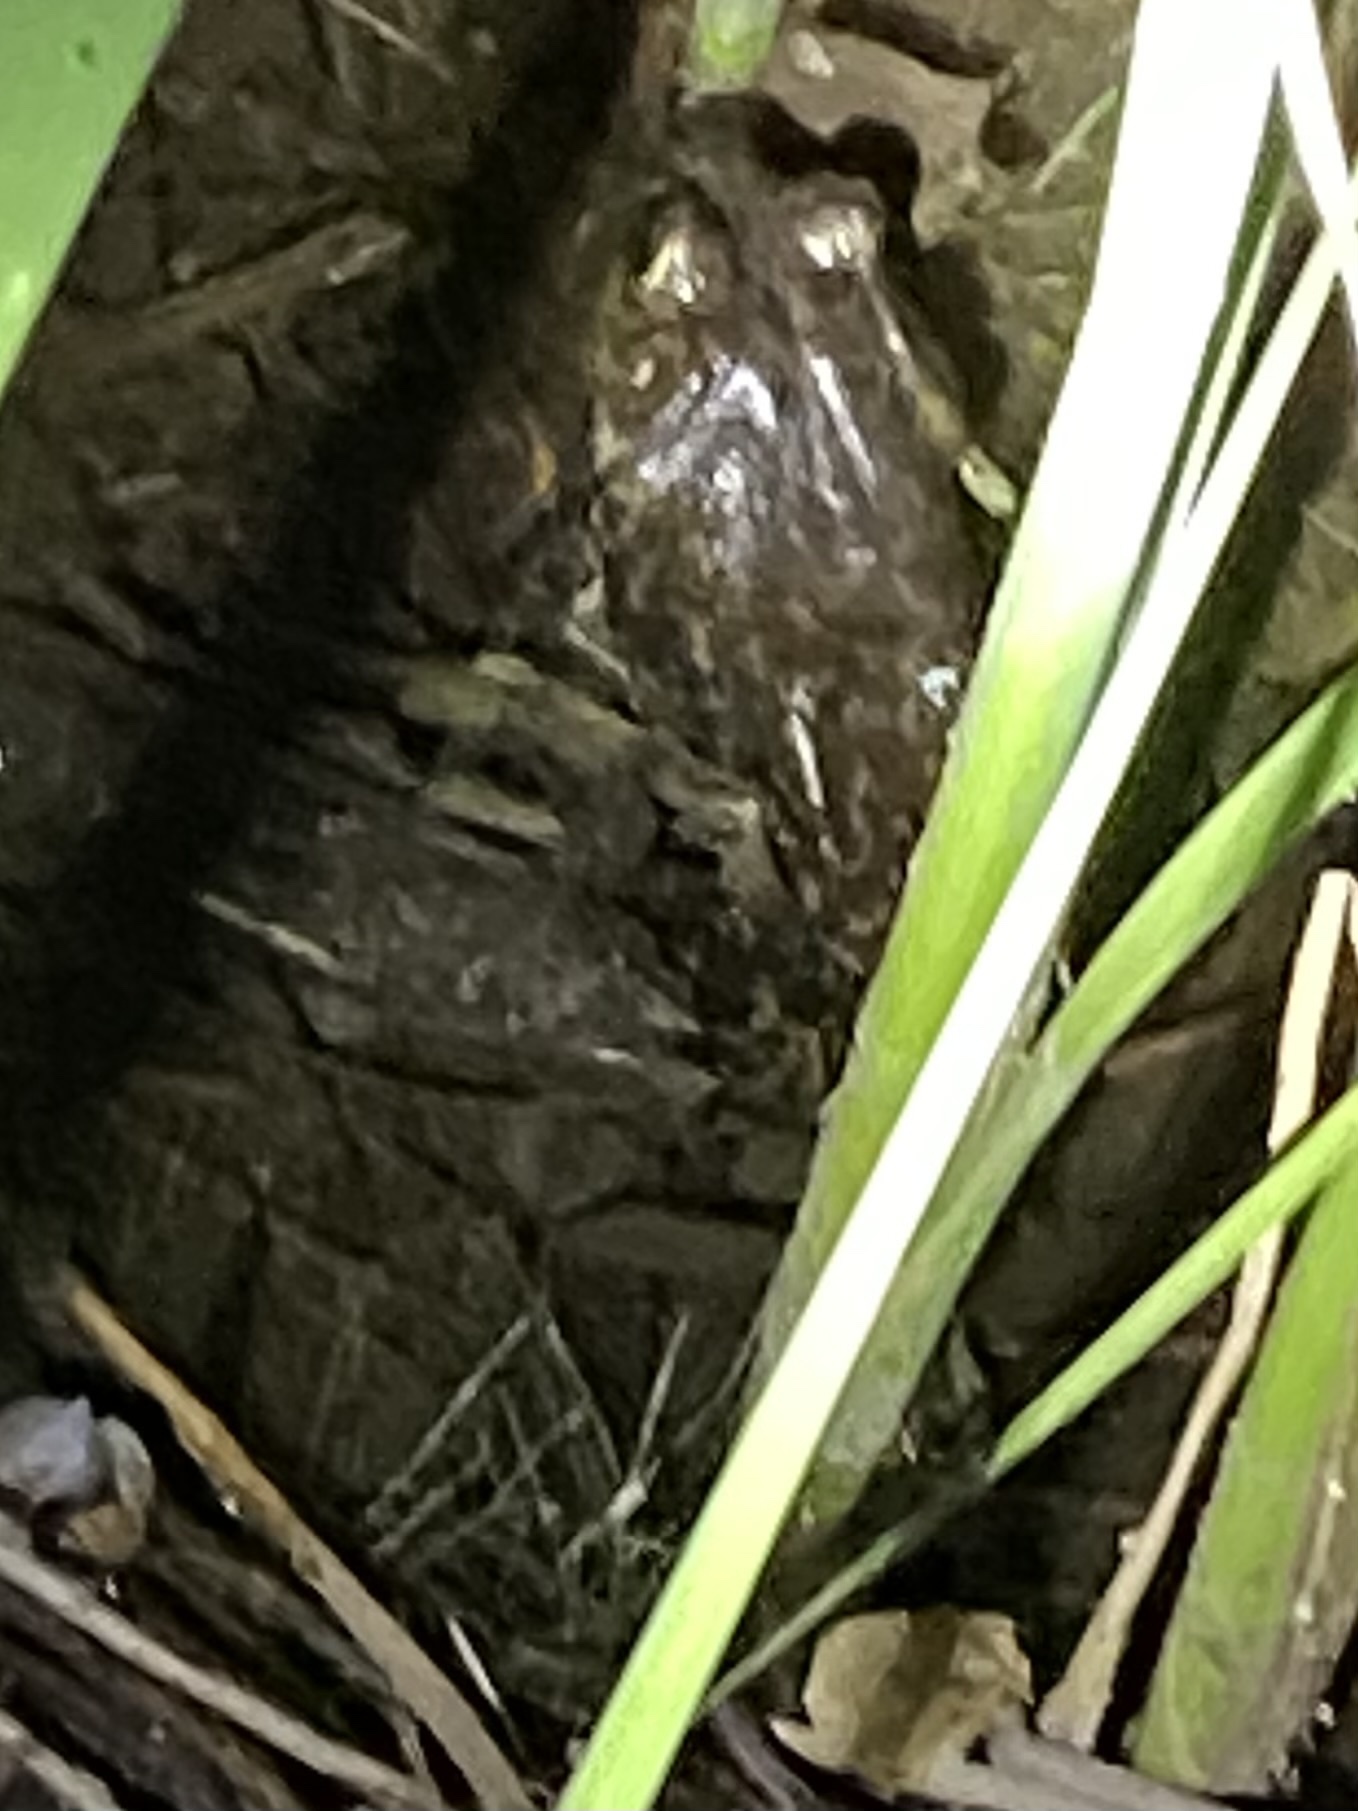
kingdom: Animalia
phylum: Chordata
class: Amphibia
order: Anura
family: Ranidae
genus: Lithobates
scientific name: Lithobates catesbeianus
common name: American bullfrog
